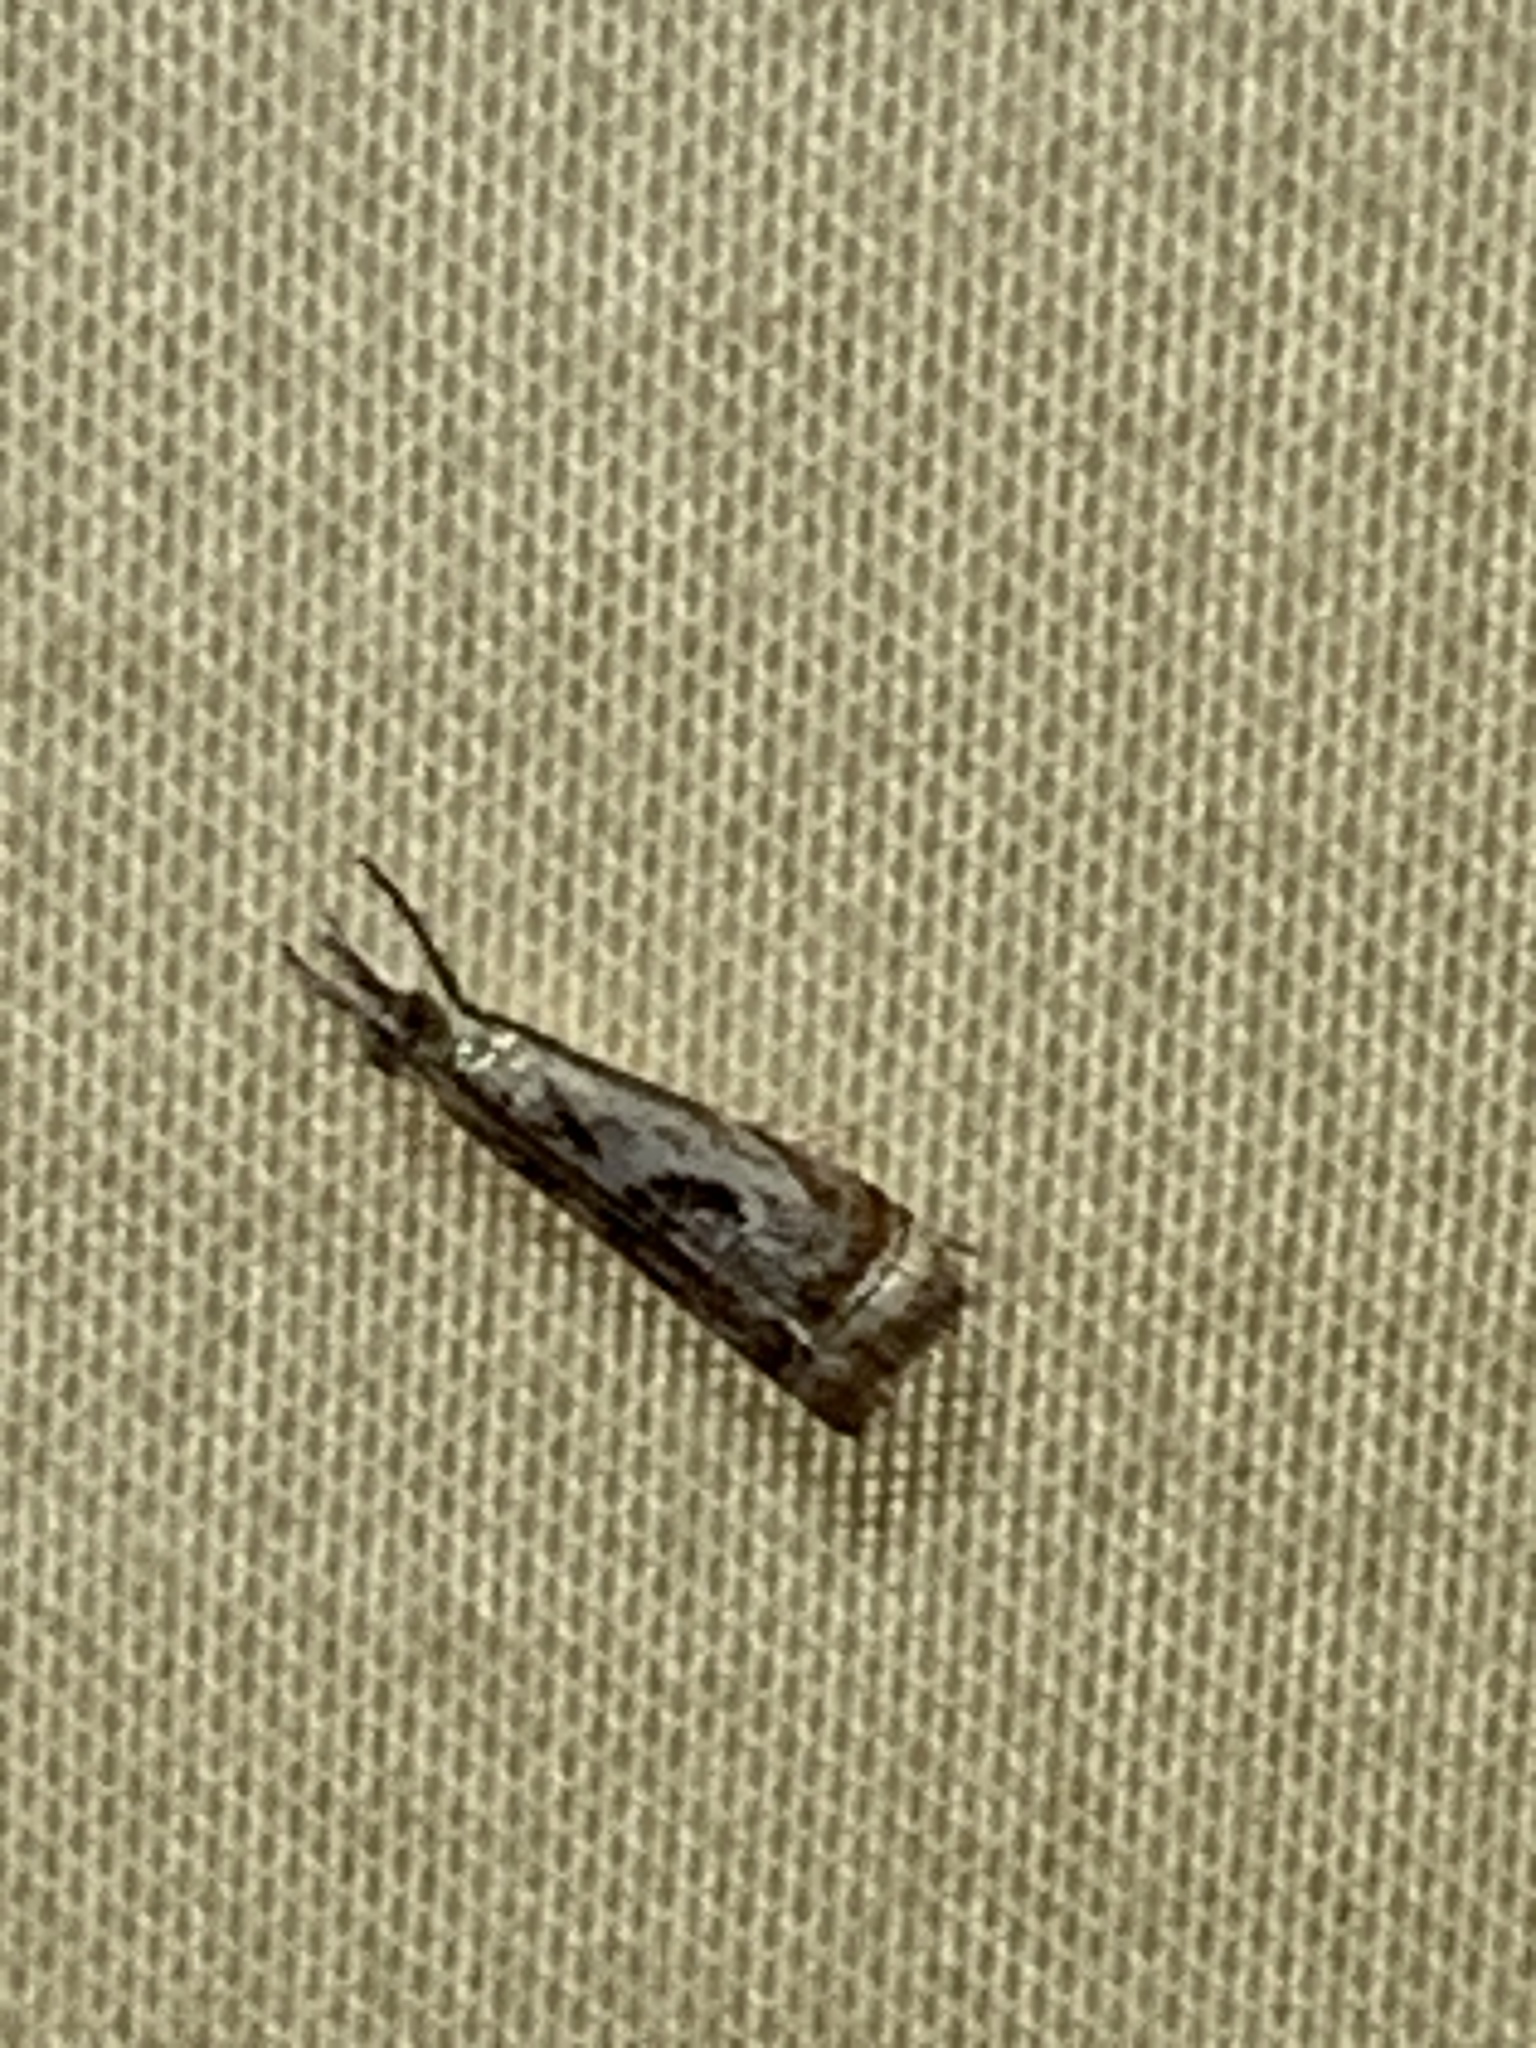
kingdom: Animalia
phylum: Arthropoda
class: Insecta
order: Lepidoptera
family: Crambidae
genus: Microcrambus
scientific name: Microcrambus elegans
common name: Elegant grass-veneer
